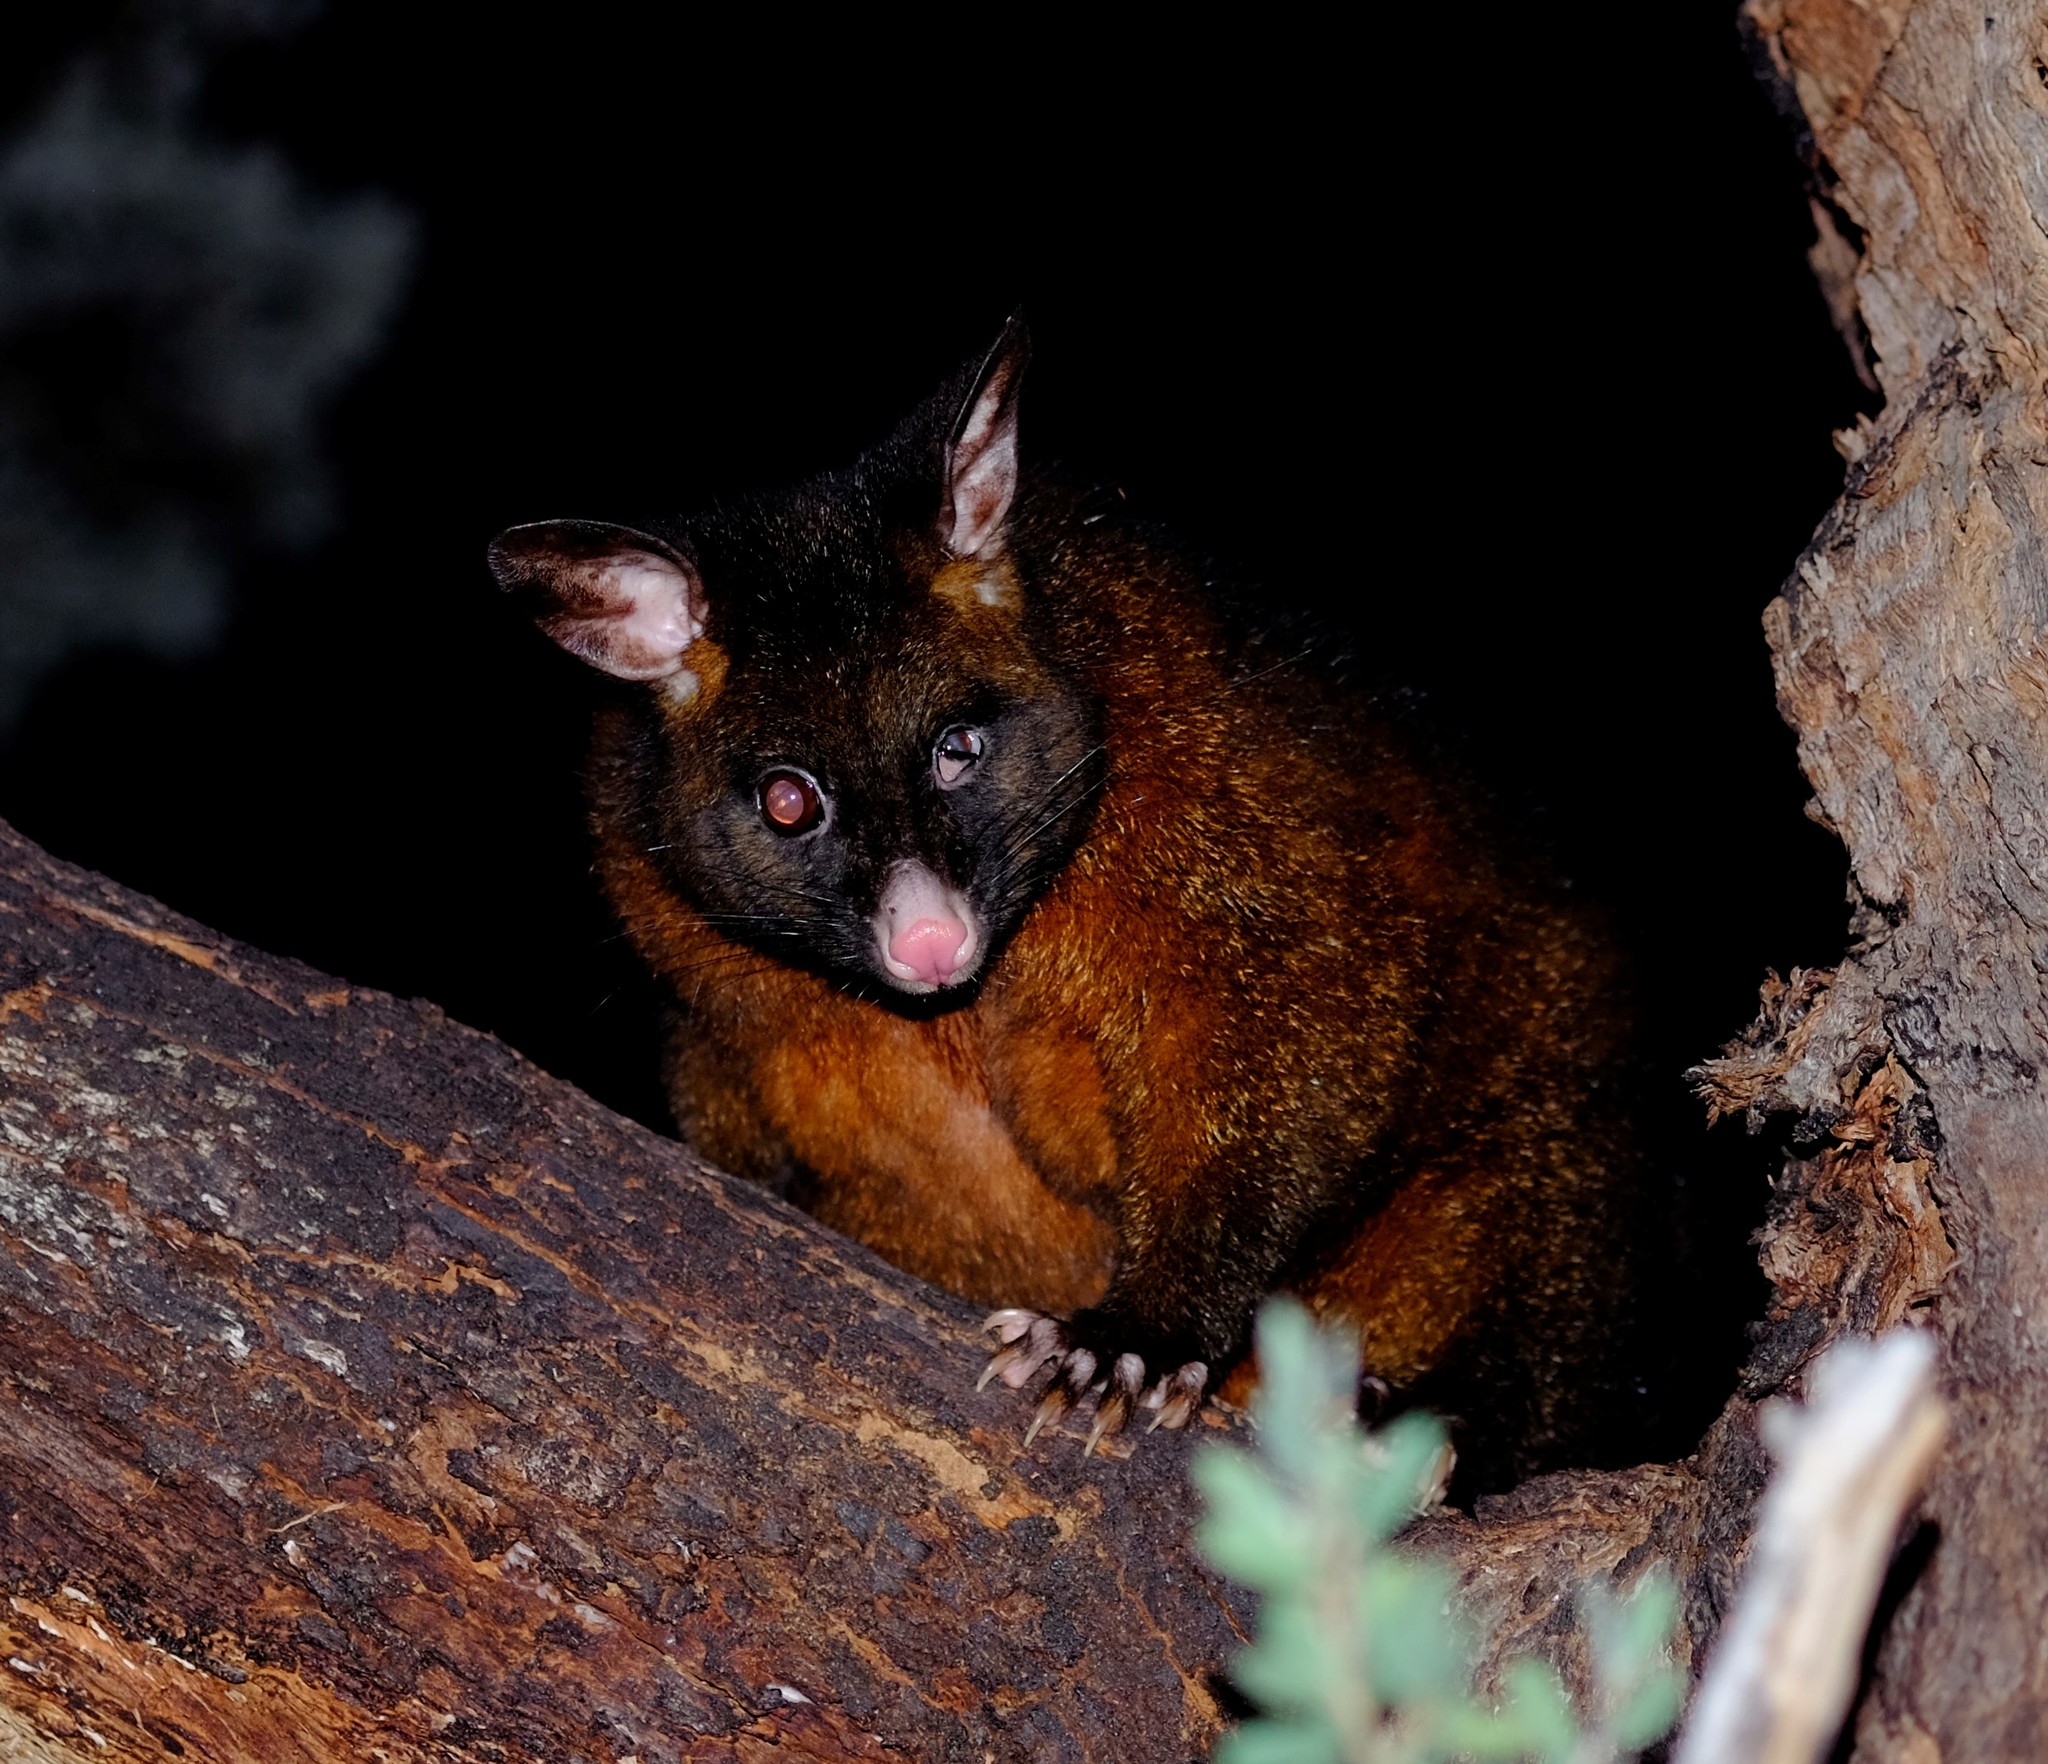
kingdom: Animalia
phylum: Chordata
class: Mammalia
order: Diprotodontia
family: Phalangeridae
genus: Trichosurus
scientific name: Trichosurus vulpecula
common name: Common brushtail
